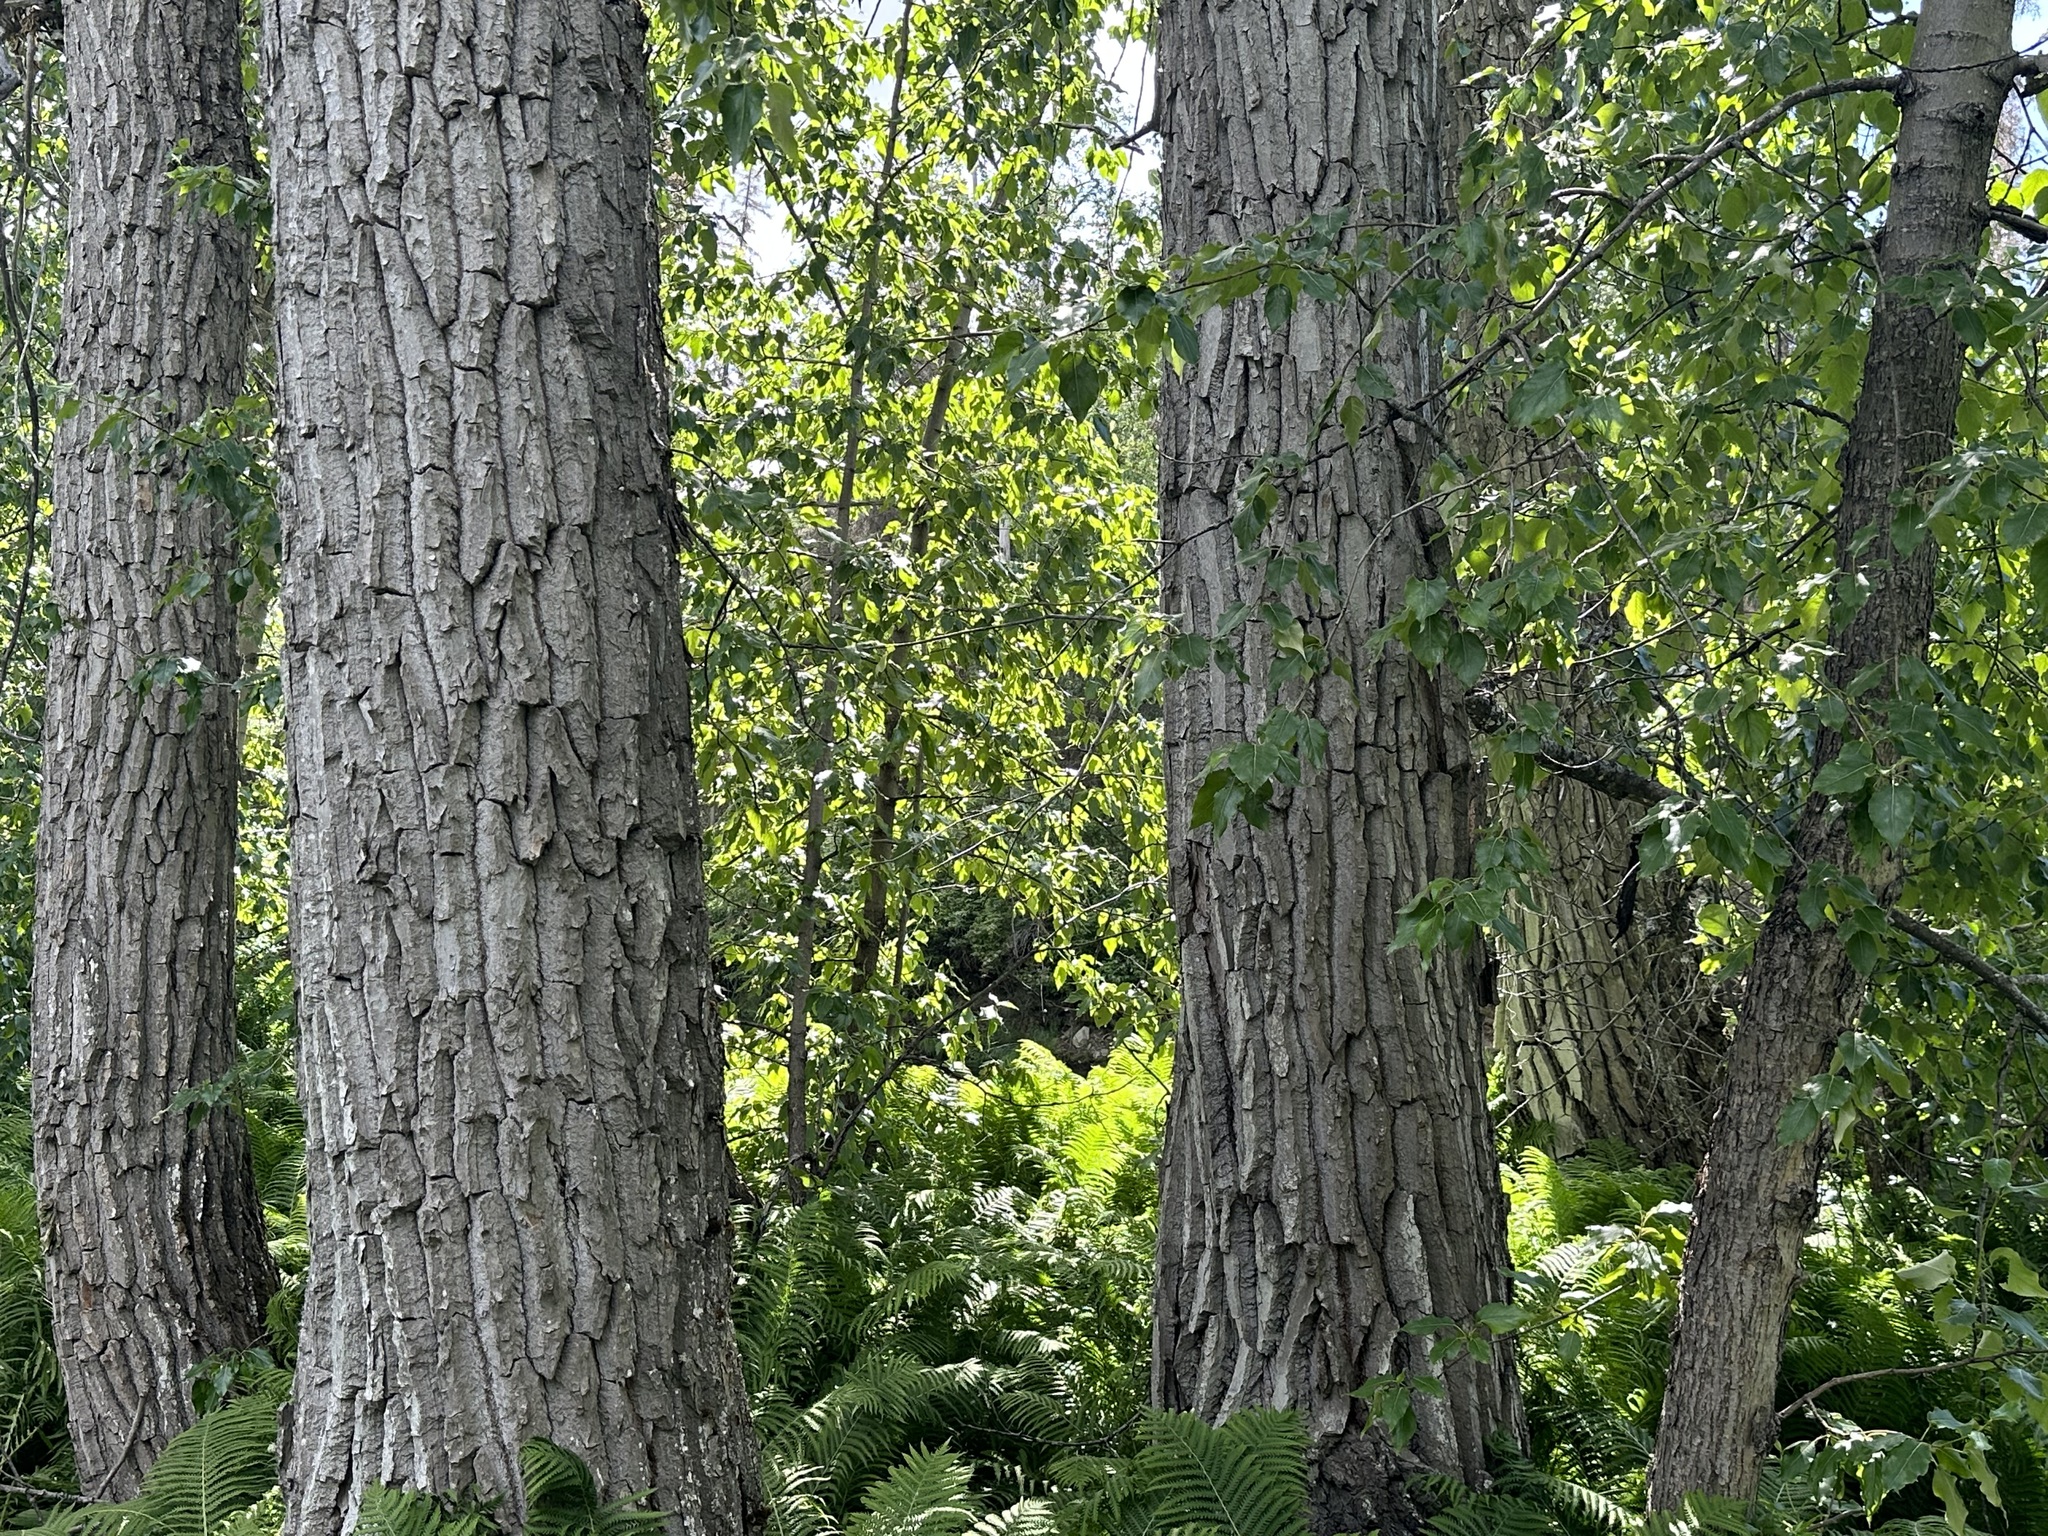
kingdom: Plantae
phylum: Tracheophyta
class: Magnoliopsida
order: Malpighiales
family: Salicaceae
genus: Populus
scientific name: Populus trichocarpa
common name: Black cottonwood
